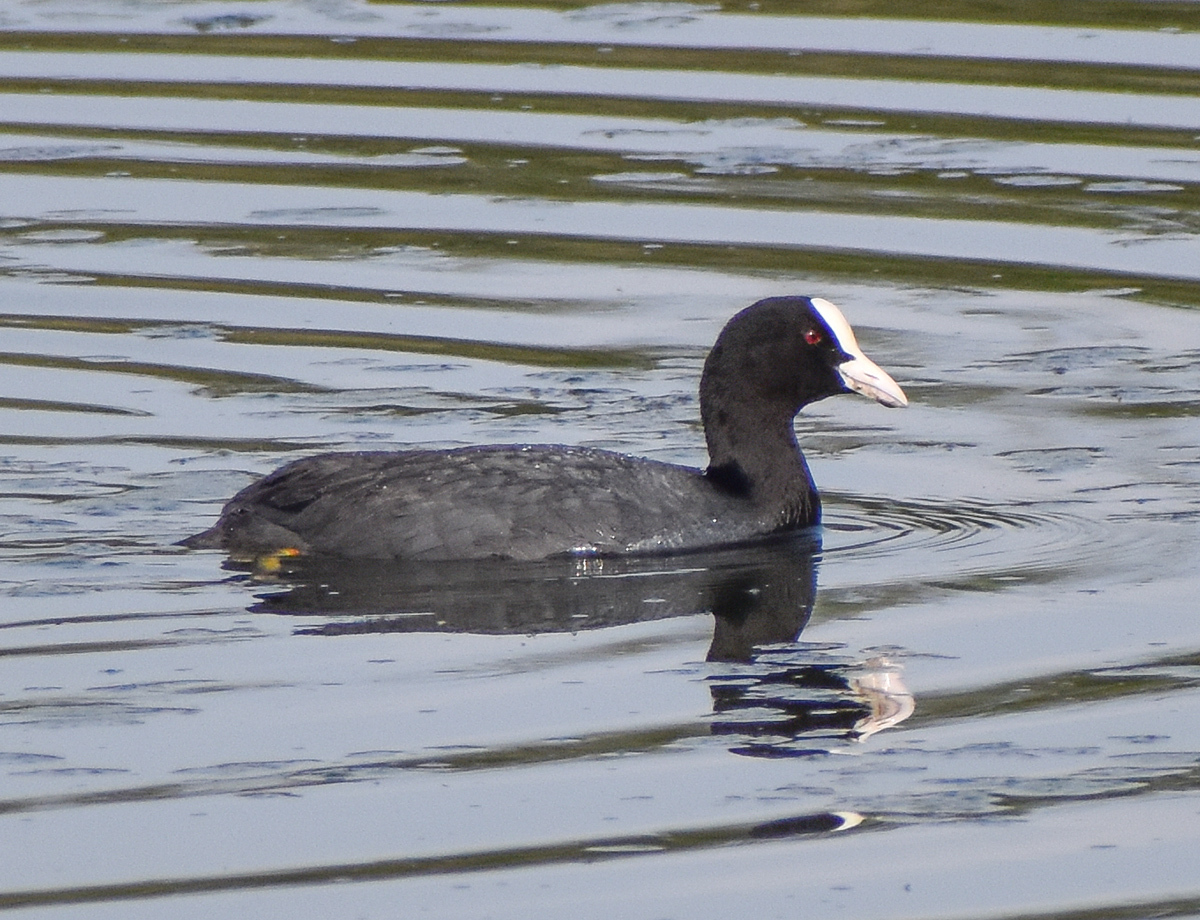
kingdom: Animalia
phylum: Chordata
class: Aves
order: Gruiformes
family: Rallidae
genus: Fulica
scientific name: Fulica atra
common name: Eurasian coot
